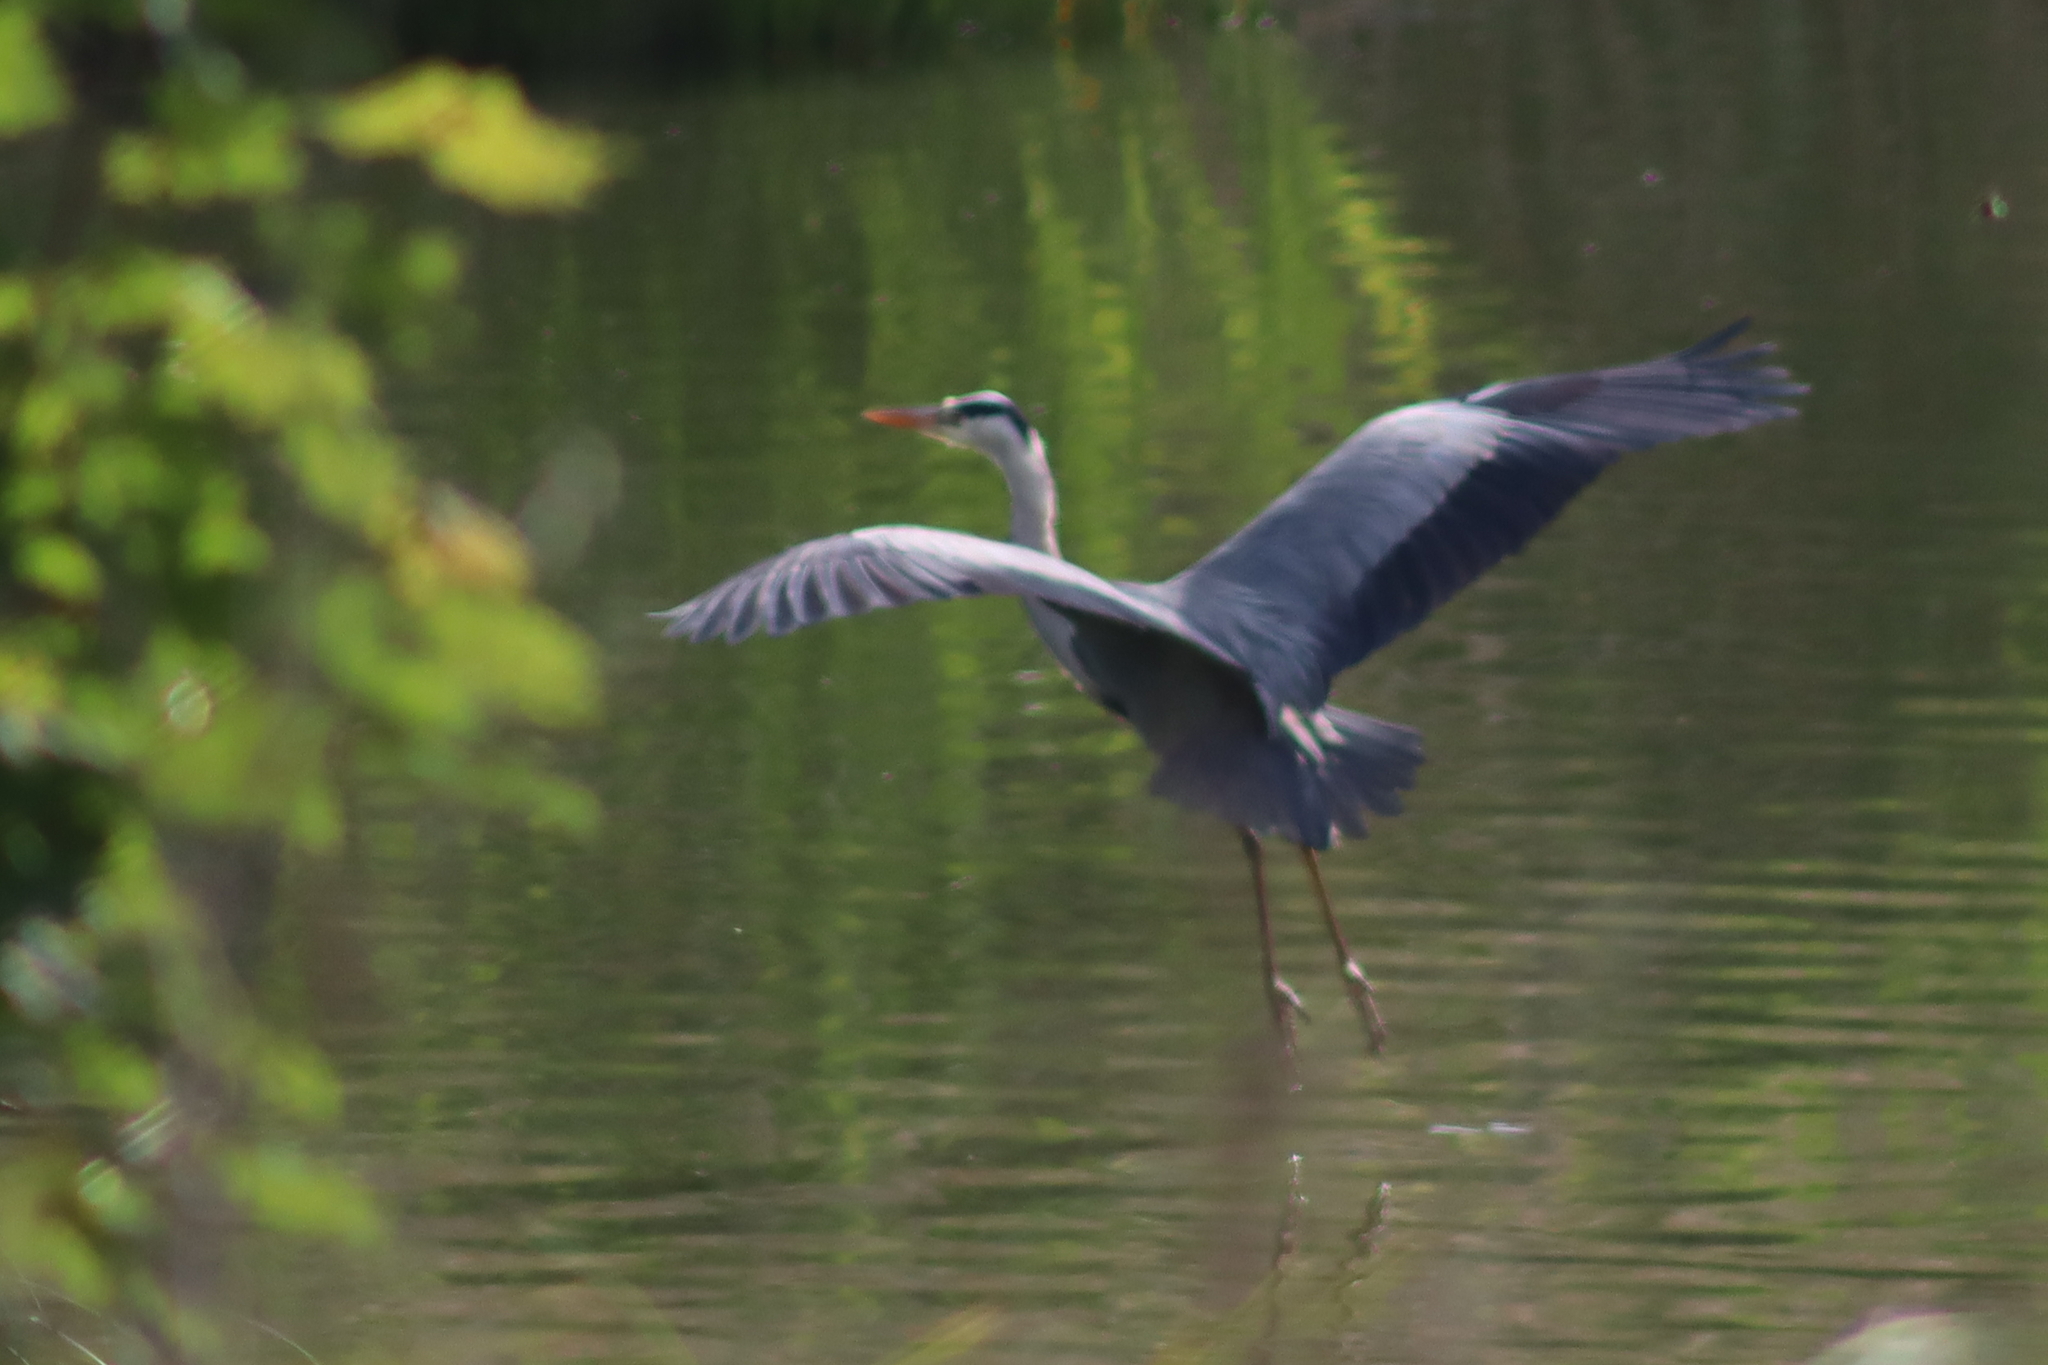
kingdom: Animalia
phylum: Chordata
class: Aves
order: Pelecaniformes
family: Ardeidae
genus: Ardea
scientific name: Ardea cinerea
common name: Grey heron
